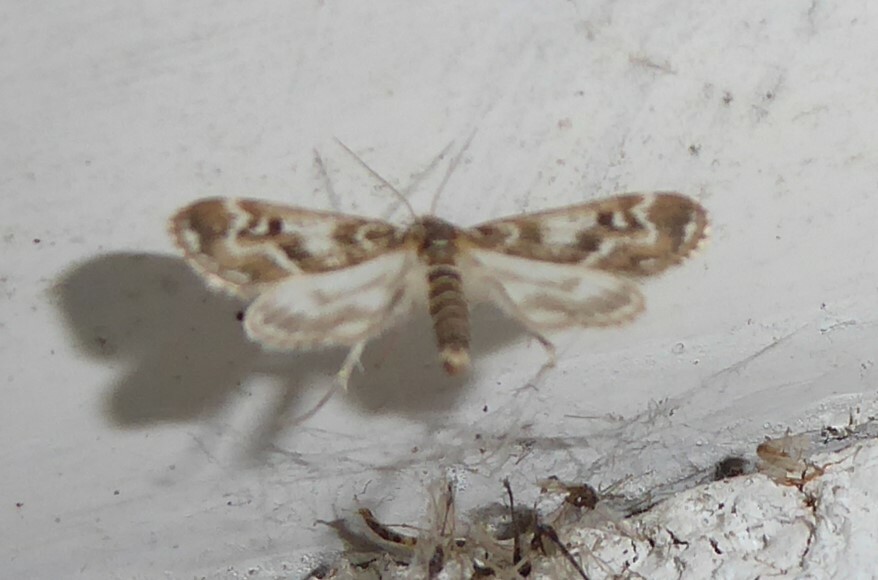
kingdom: Animalia
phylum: Arthropoda
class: Insecta
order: Lepidoptera
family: Crambidae
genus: Hygraula
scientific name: Hygraula nitens
